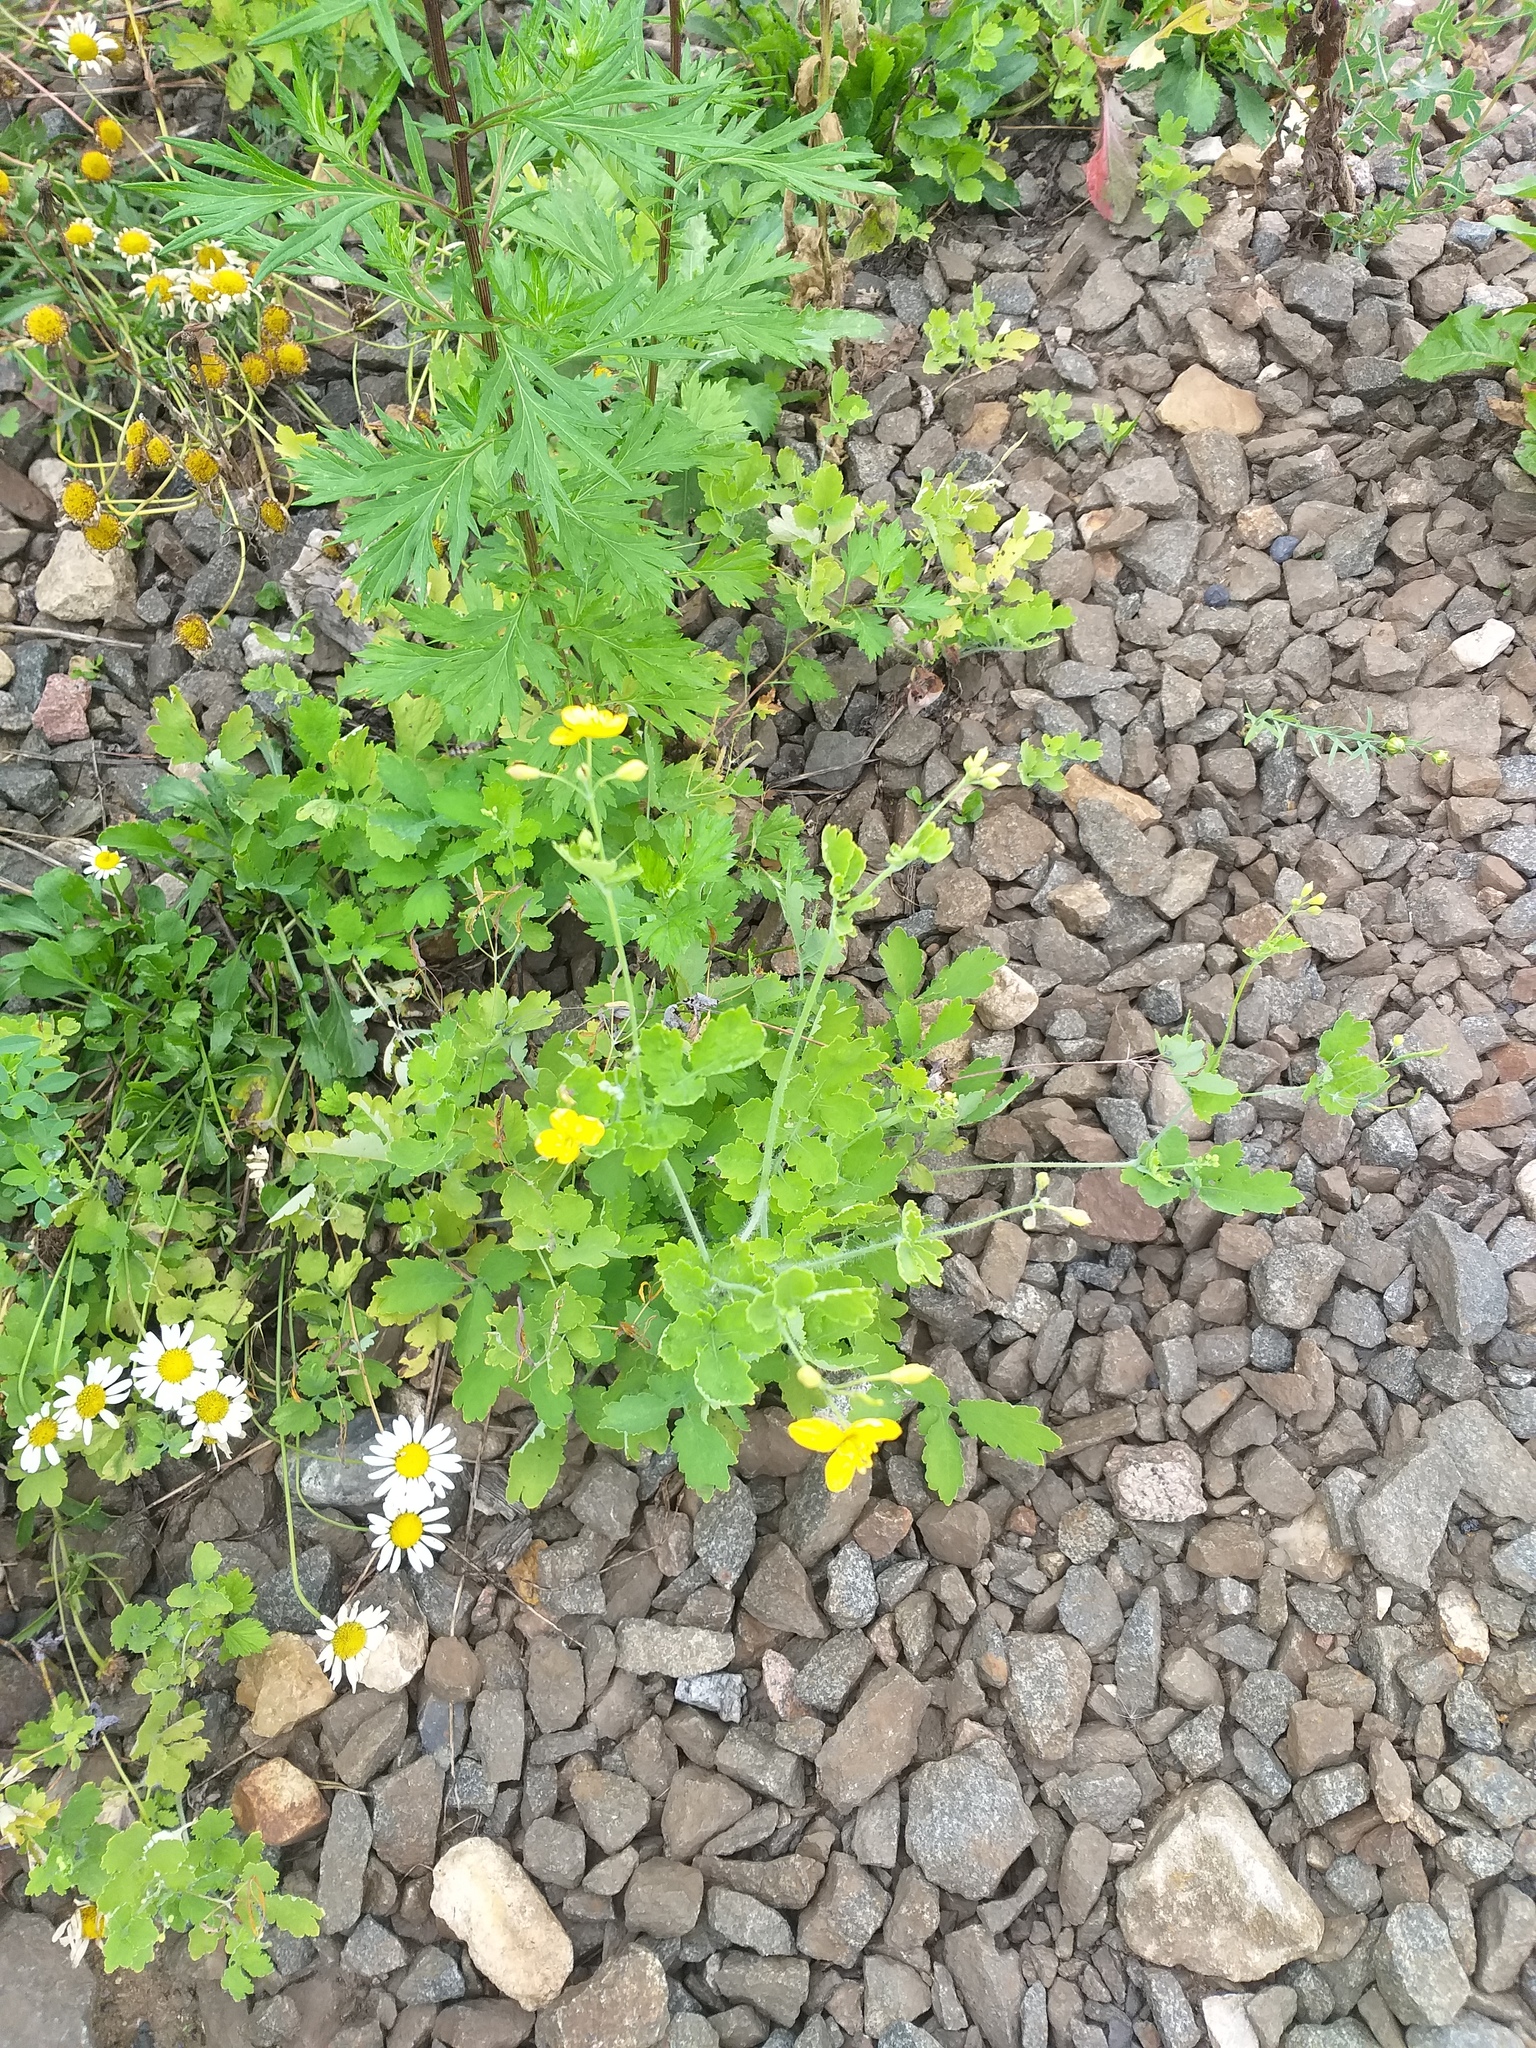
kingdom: Plantae
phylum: Tracheophyta
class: Magnoliopsida
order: Ranunculales
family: Papaveraceae
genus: Chelidonium
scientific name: Chelidonium majus
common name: Greater celandine
